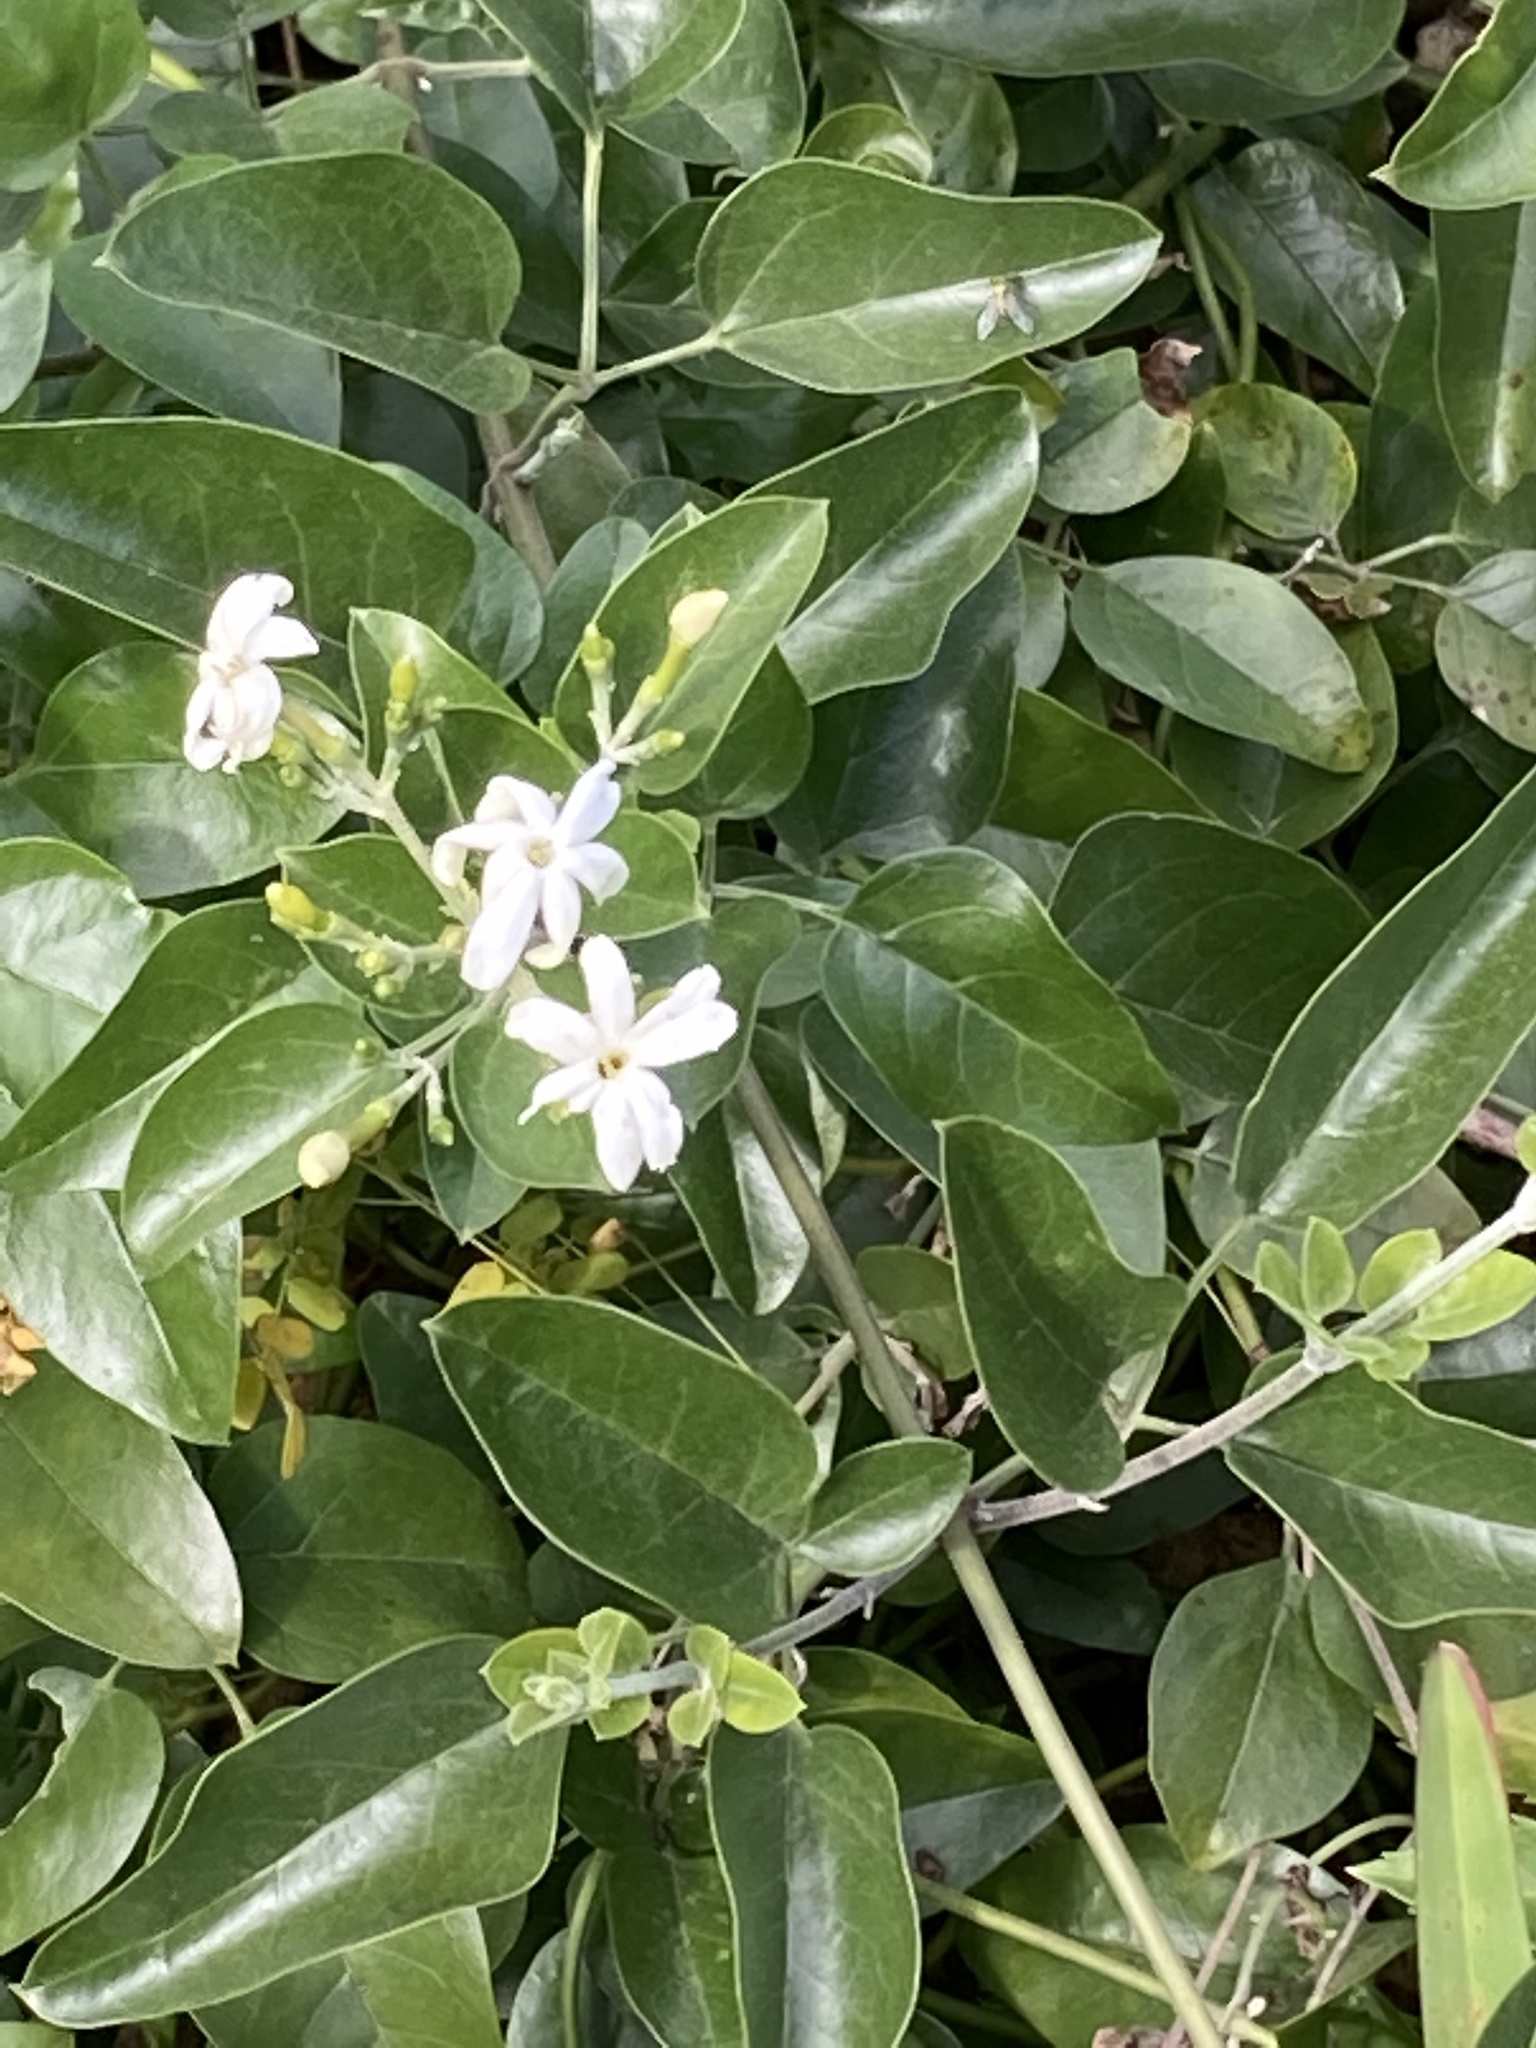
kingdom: Plantae
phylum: Tracheophyta
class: Magnoliopsida
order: Lamiales
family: Oleaceae
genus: Jasminum
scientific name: Jasminum fluminense
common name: Brazilian jasmine
